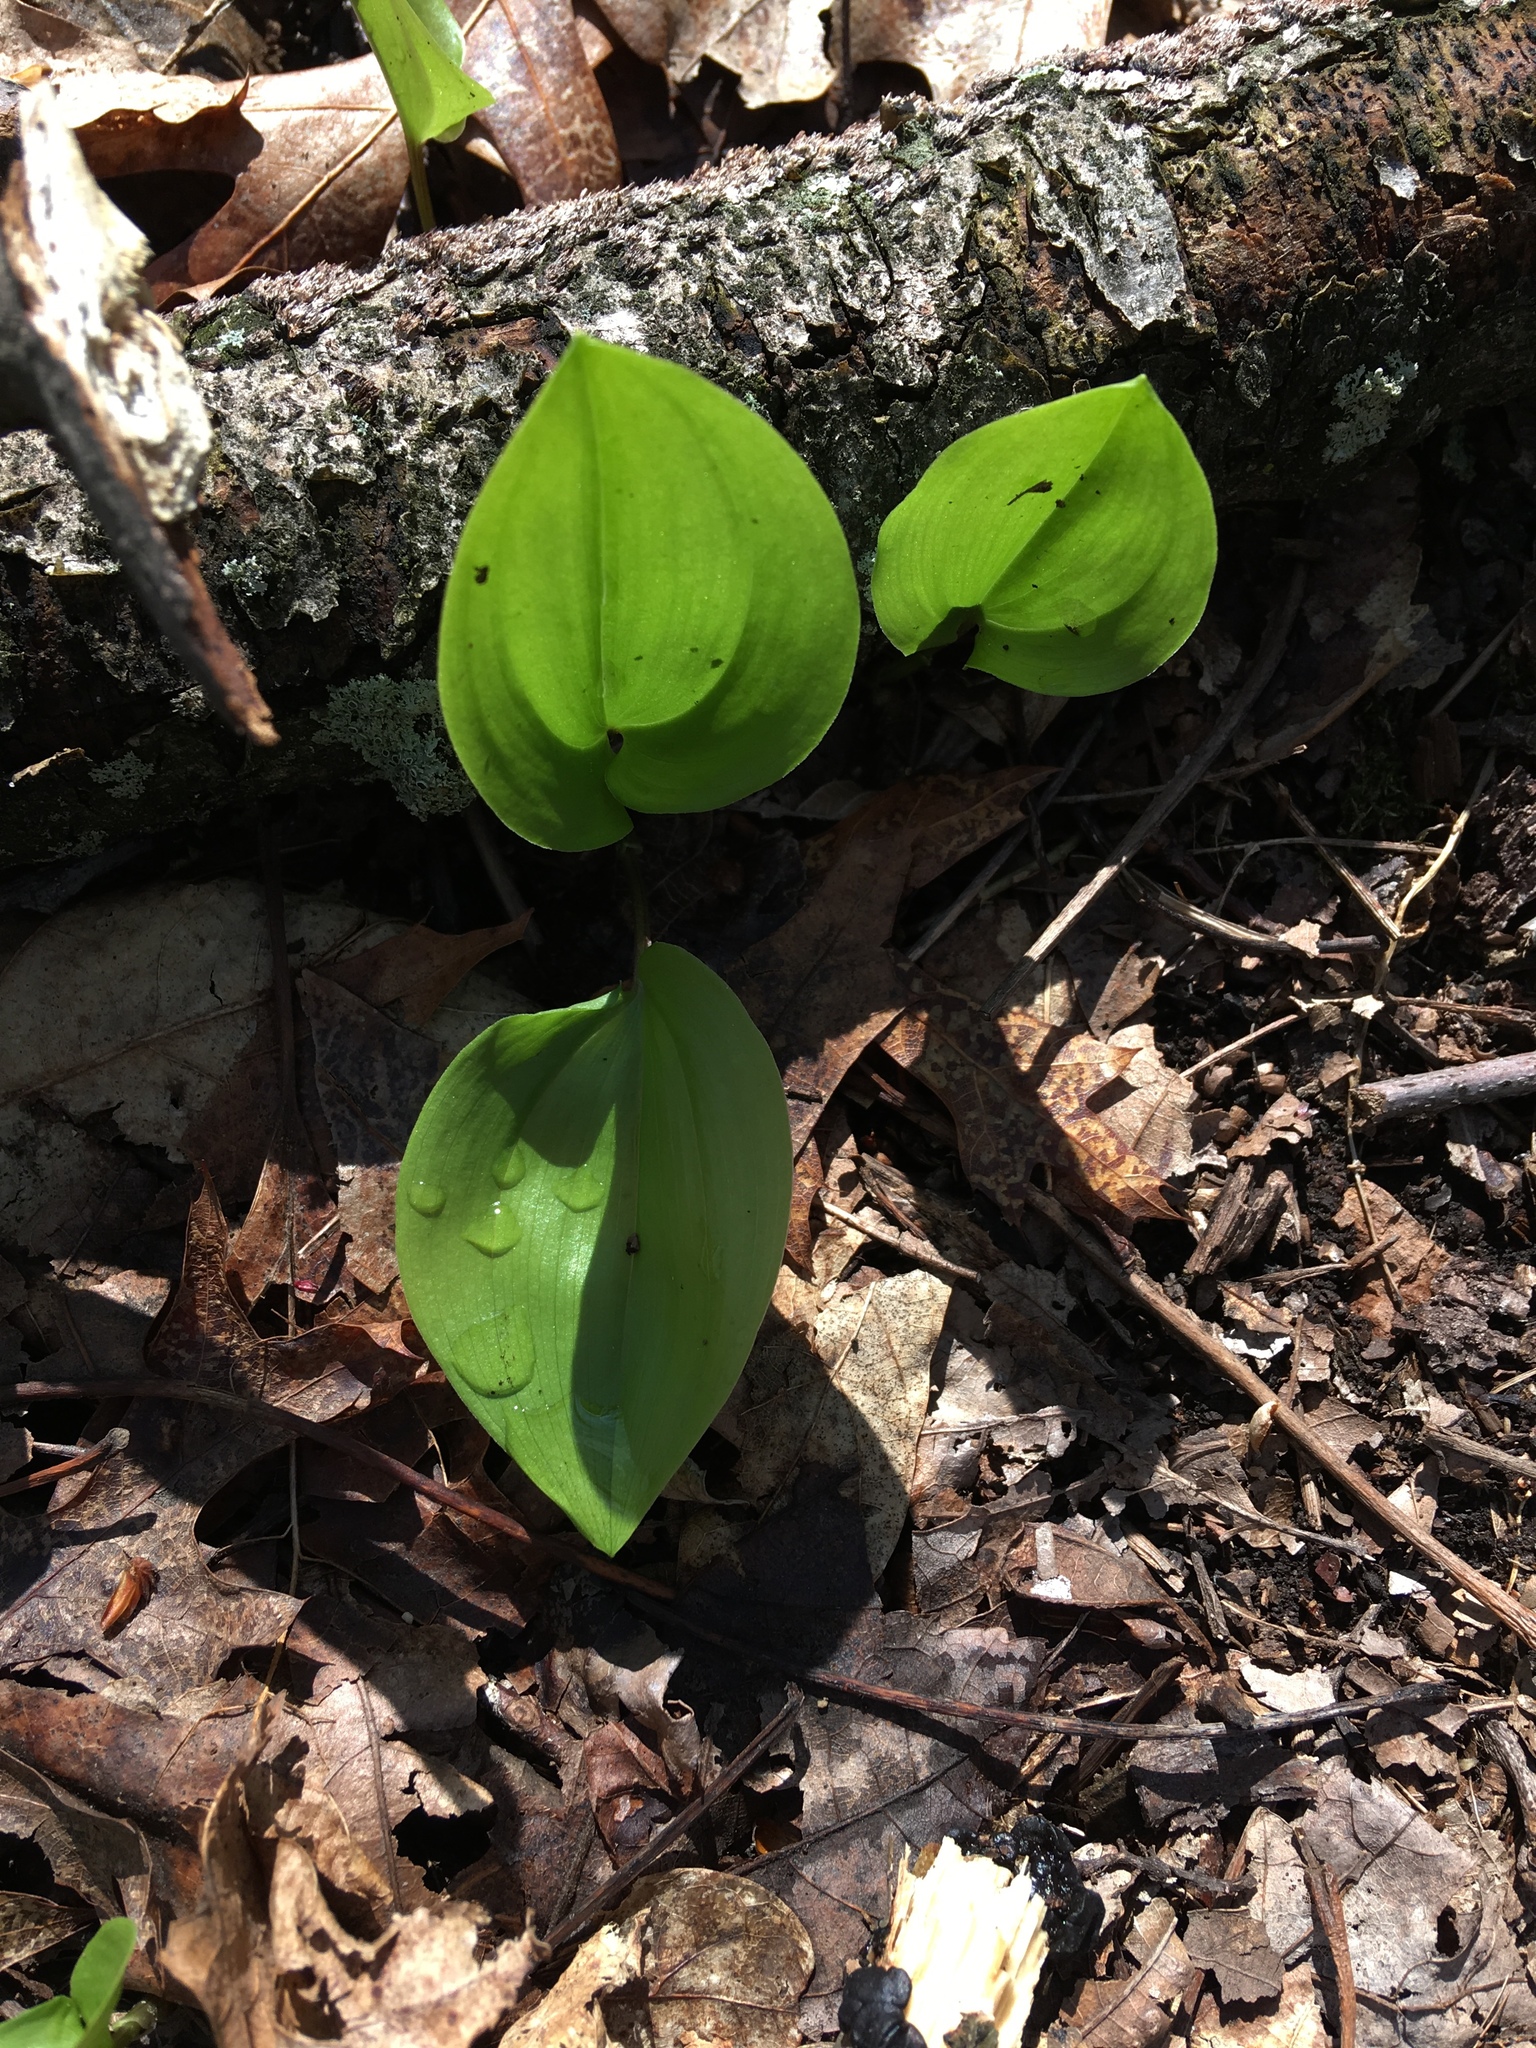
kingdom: Plantae
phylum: Tracheophyta
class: Liliopsida
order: Asparagales
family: Asparagaceae
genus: Maianthemum
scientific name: Maianthemum canadense
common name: False lily-of-the-valley
